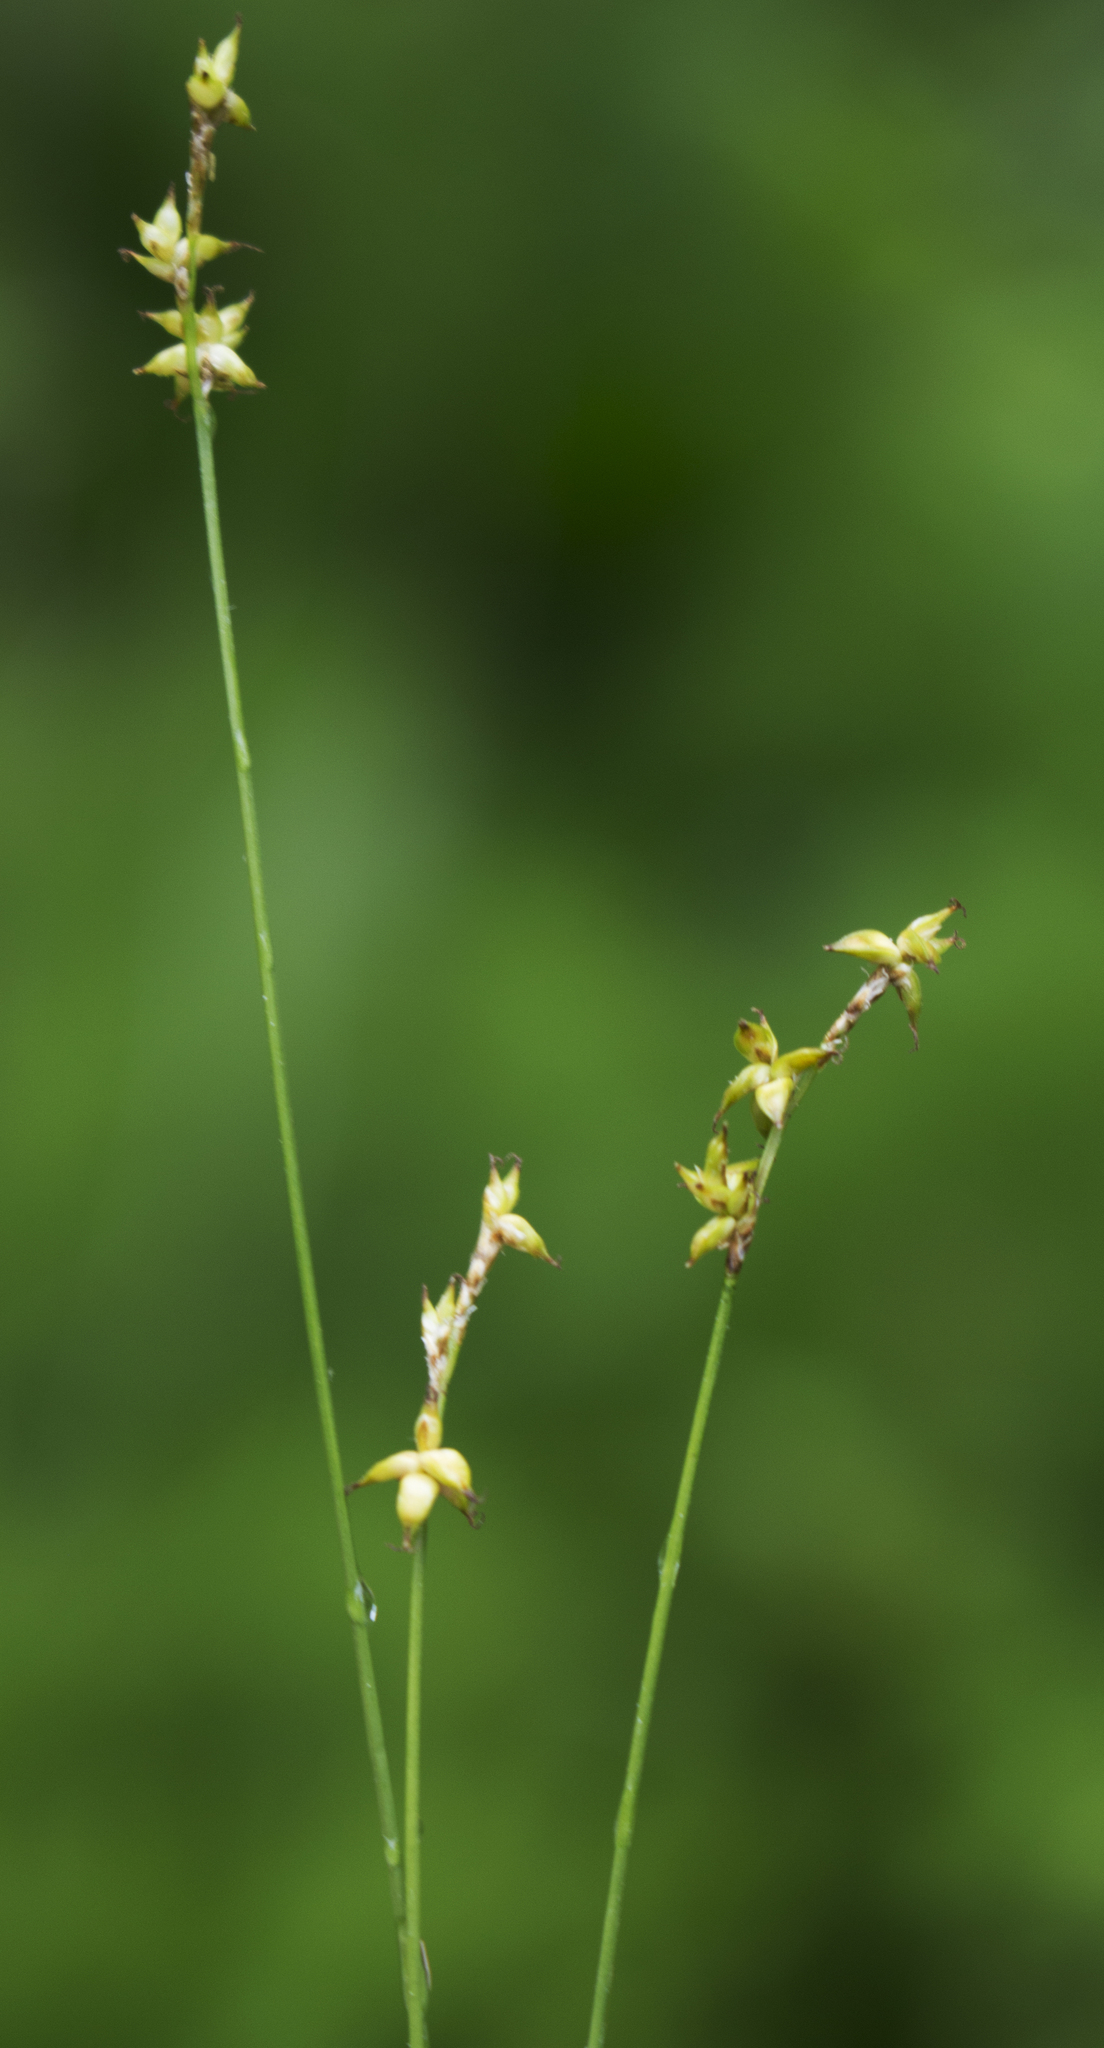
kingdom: Plantae
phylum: Tracheophyta
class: Liliopsida
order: Poales
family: Cyperaceae
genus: Carex
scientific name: Carex interior
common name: Inland sedge
